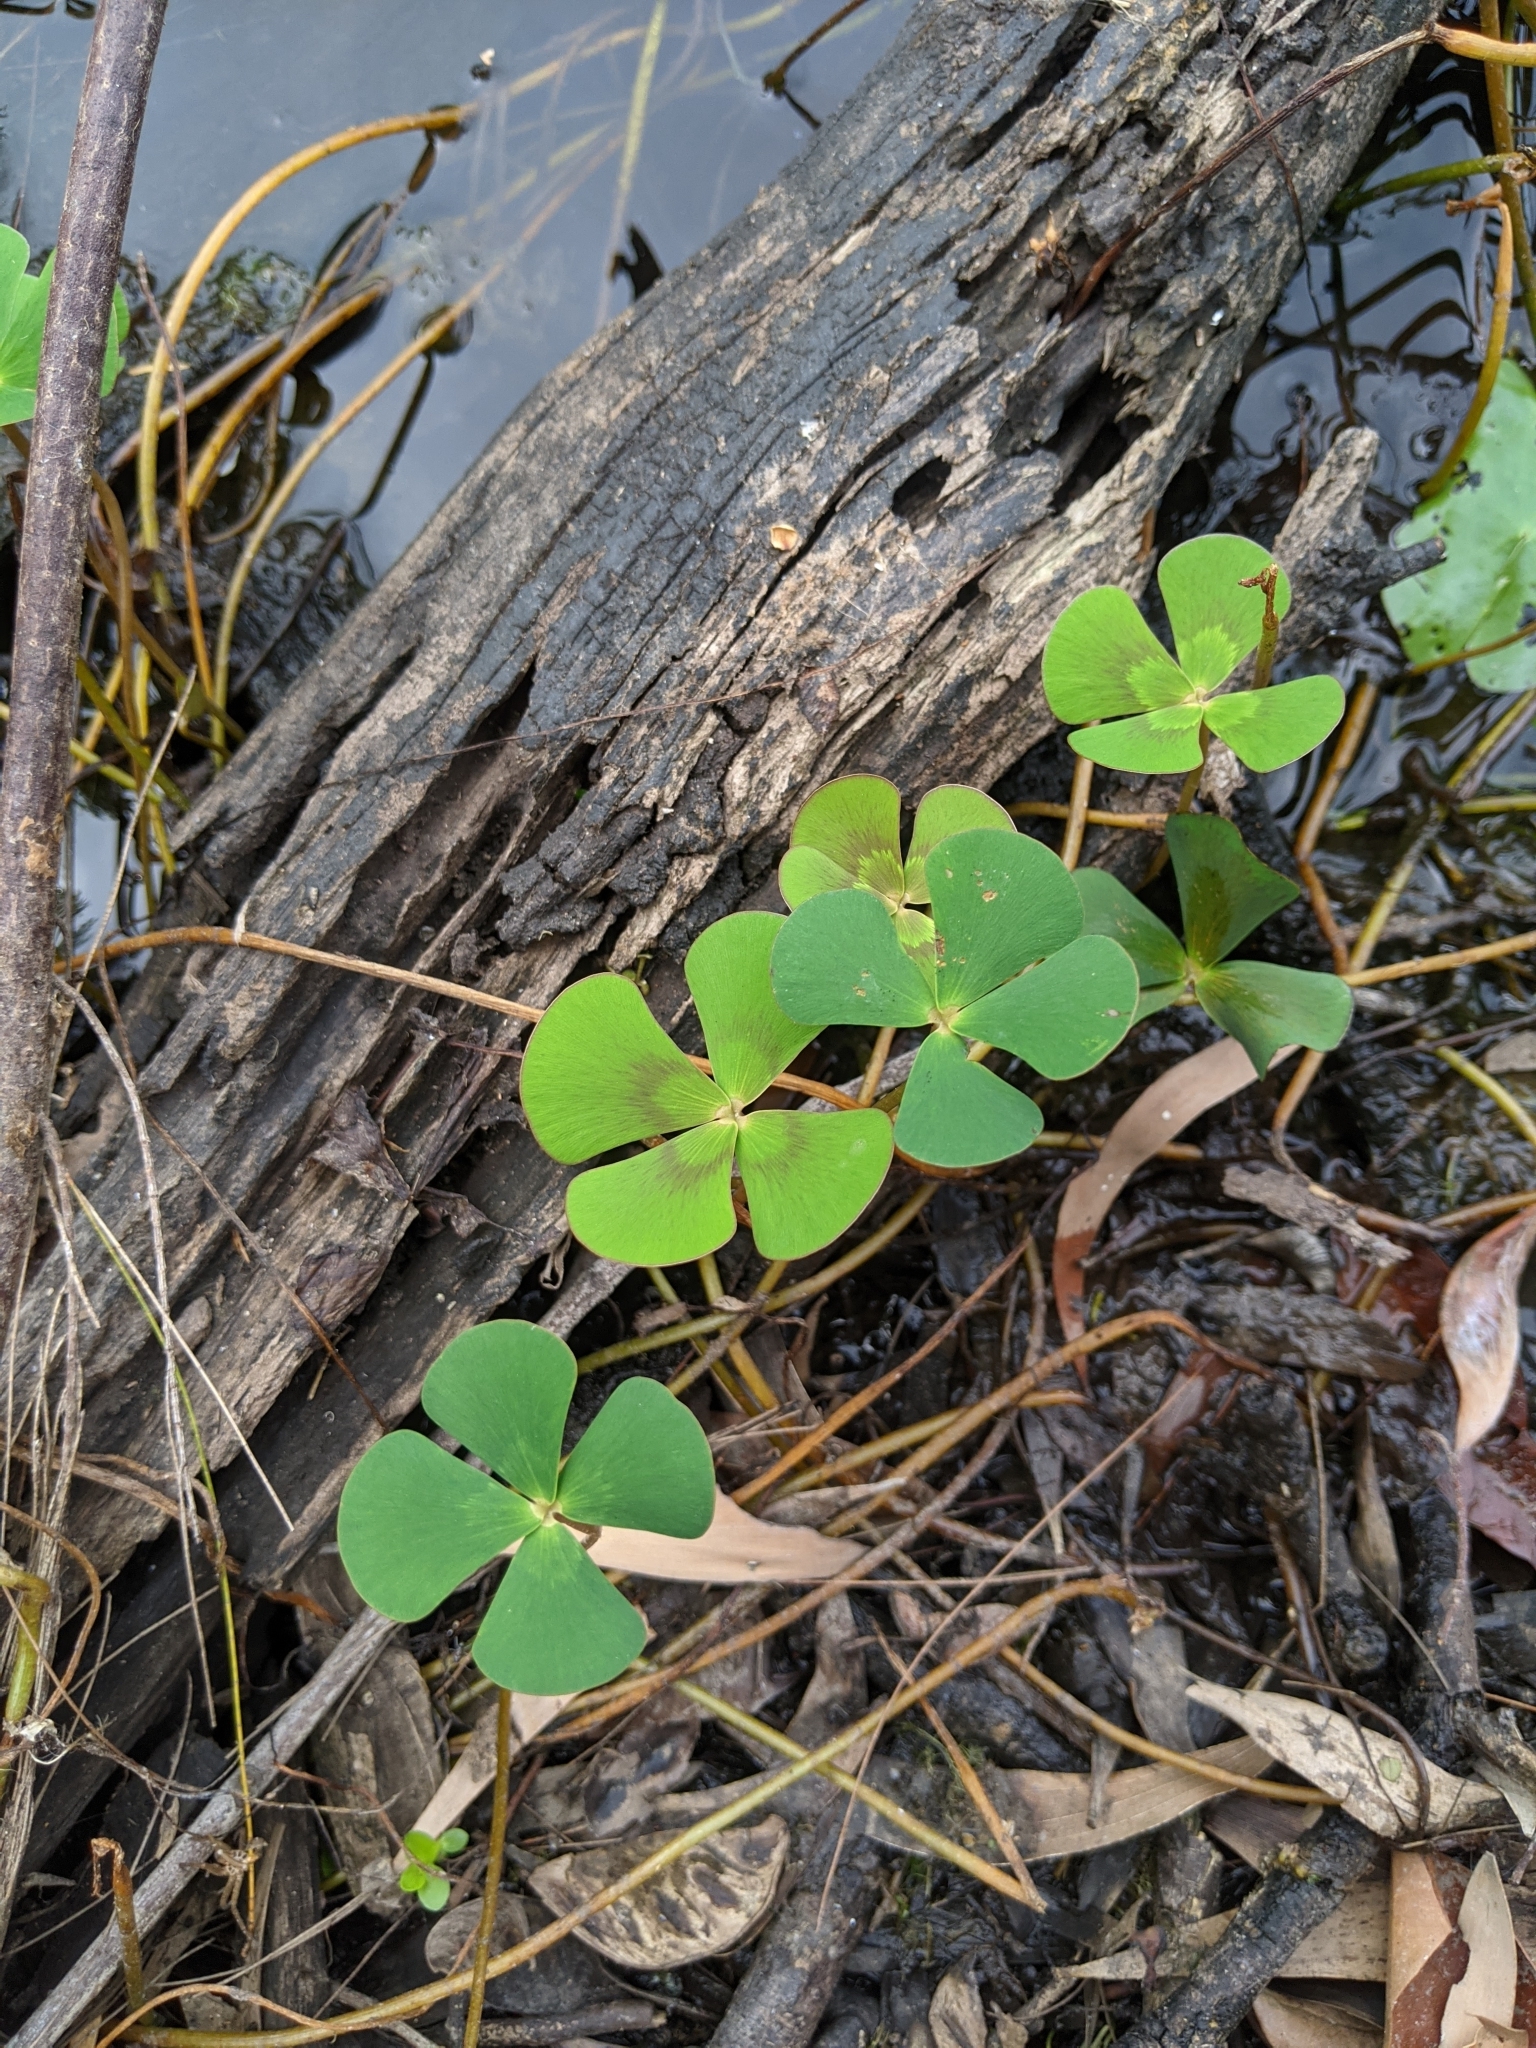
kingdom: Plantae
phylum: Tracheophyta
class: Polypodiopsida
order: Salviniales
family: Marsileaceae
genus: Marsilea
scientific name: Marsilea mutica
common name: Australian water-clover
